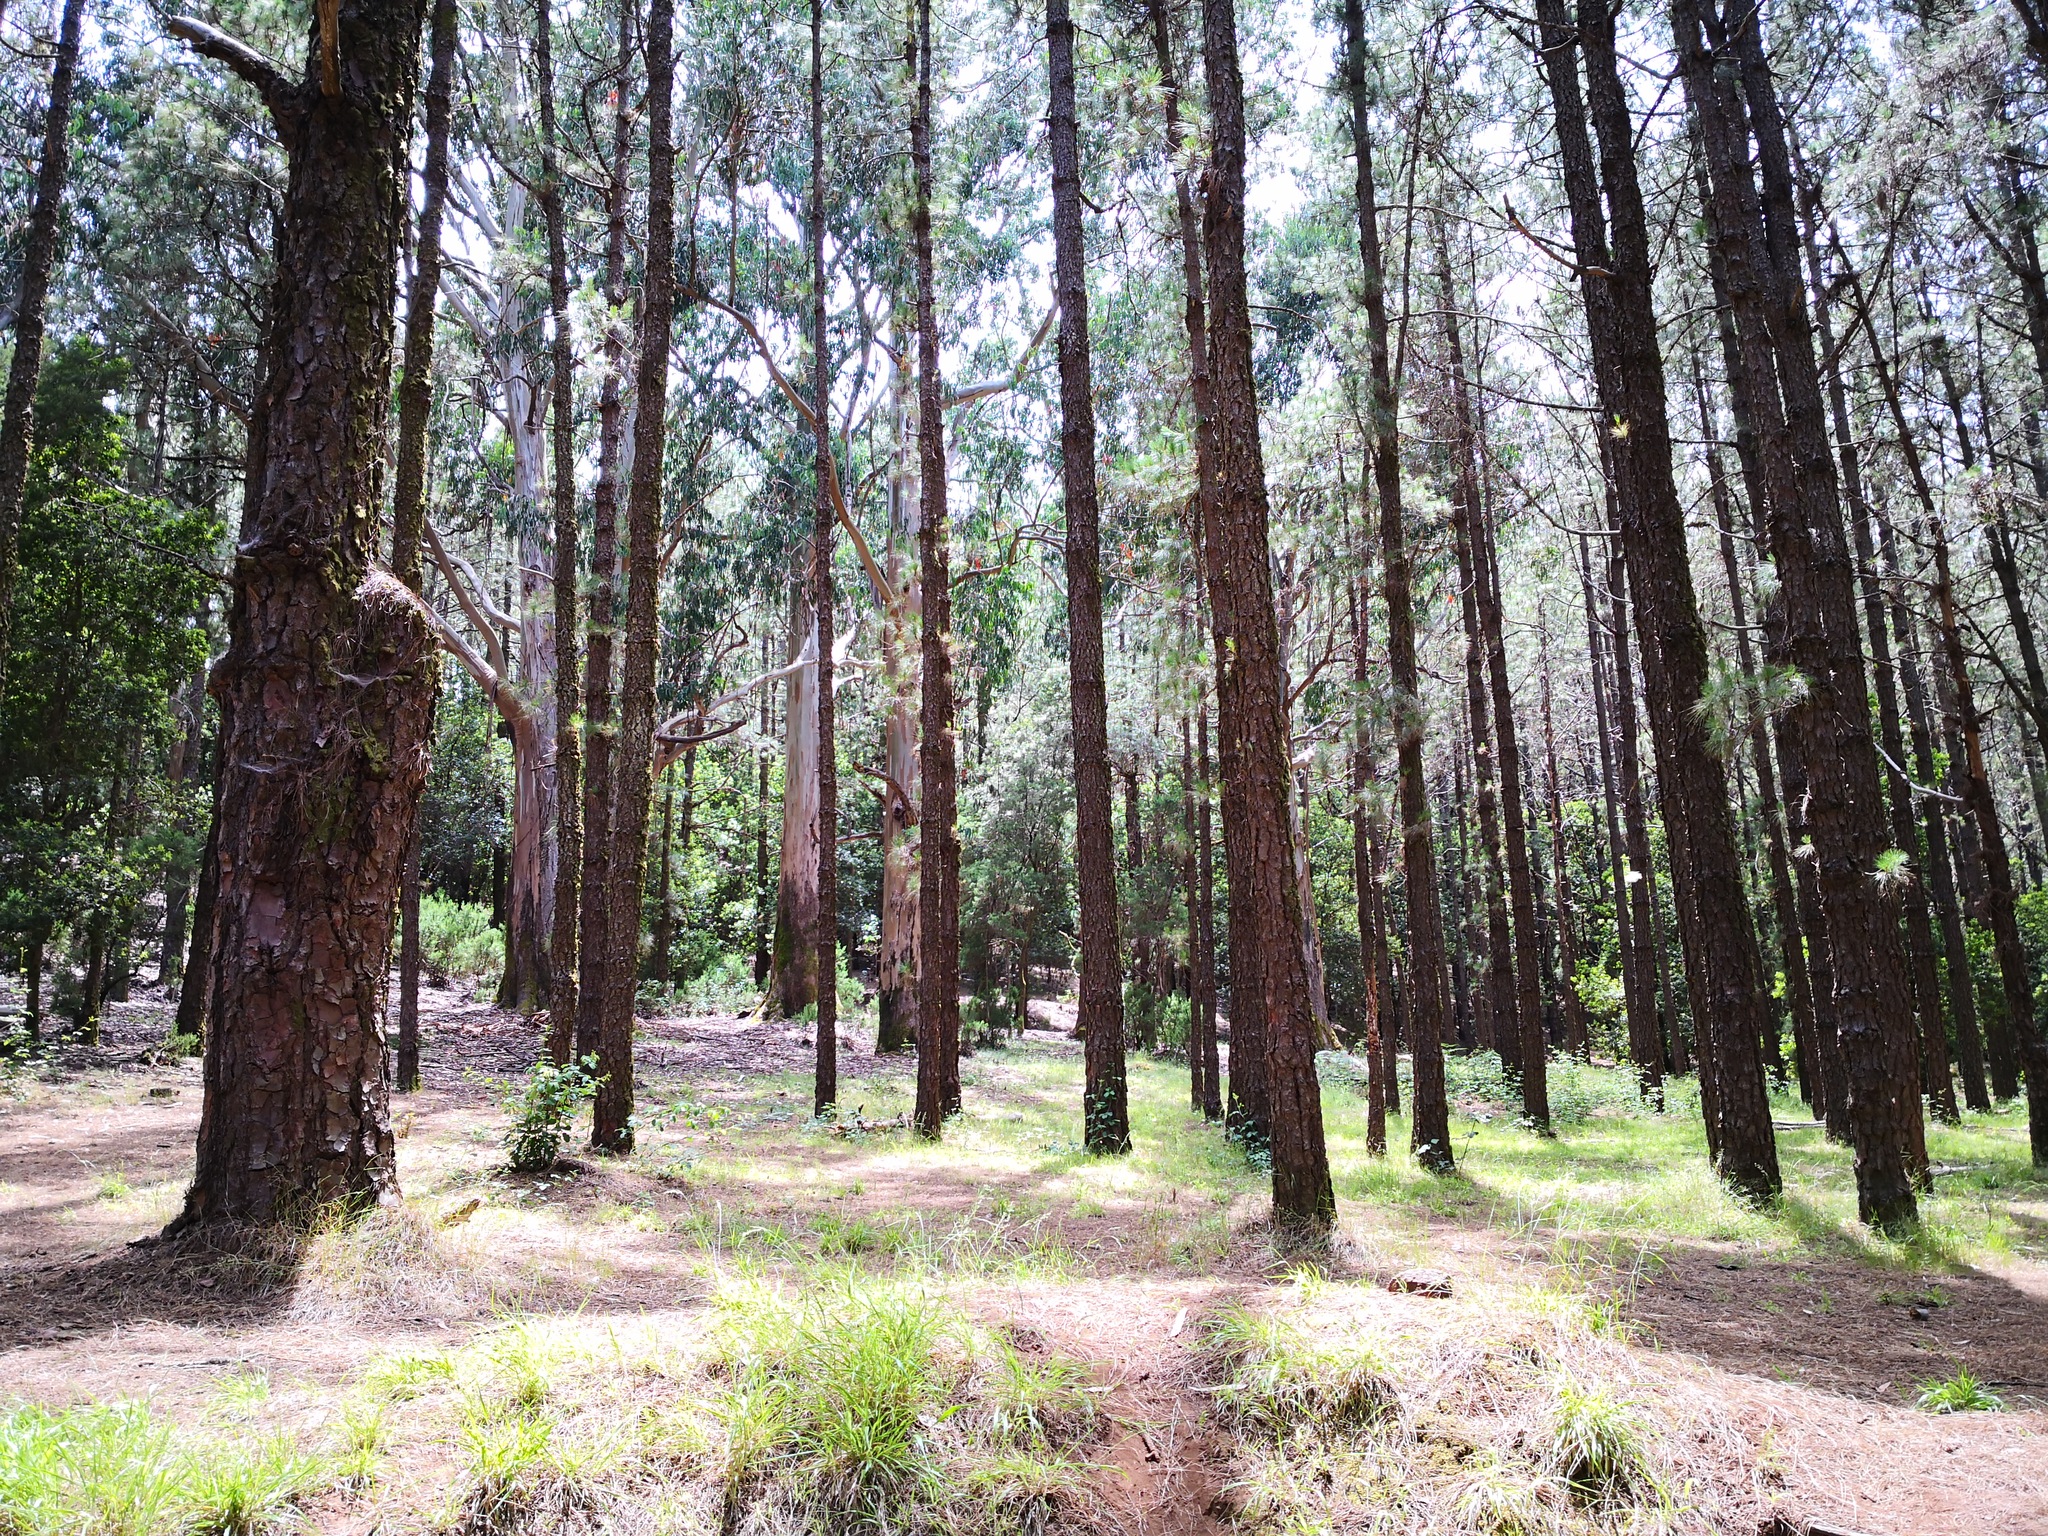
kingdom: Plantae
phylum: Tracheophyta
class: Pinopsida
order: Pinales
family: Pinaceae
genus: Pinus
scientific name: Pinus canariensis
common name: Canary islands pine
